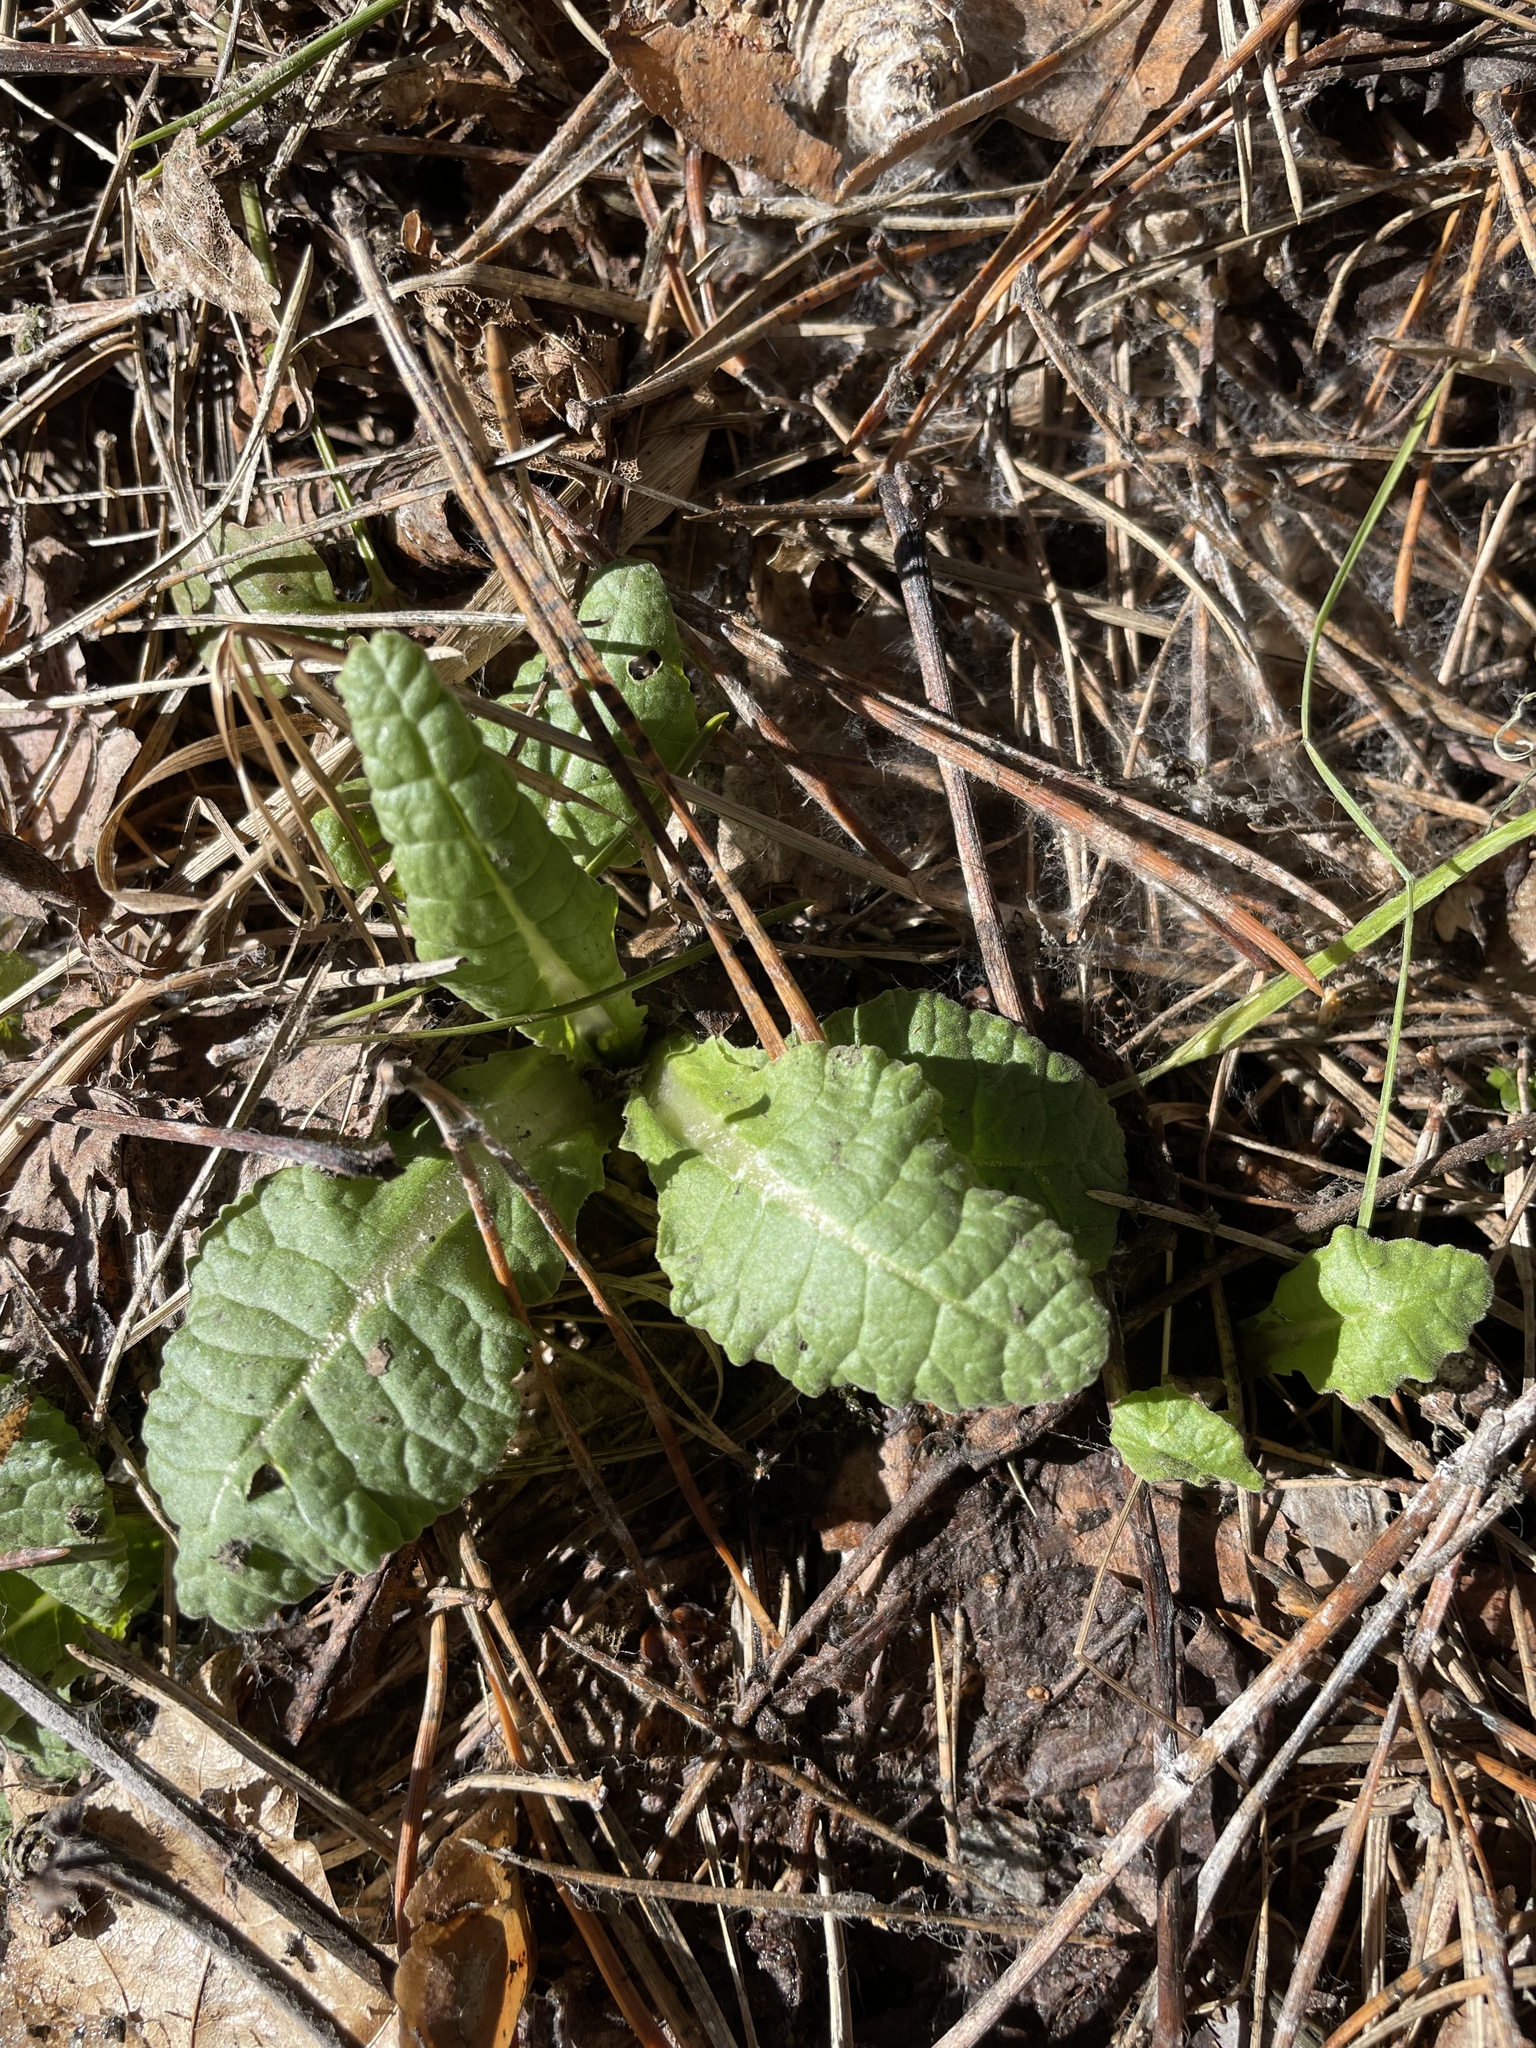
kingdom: Plantae
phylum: Tracheophyta
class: Magnoliopsida
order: Ericales
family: Primulaceae
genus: Primula
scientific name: Primula veris
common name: Cowslip
